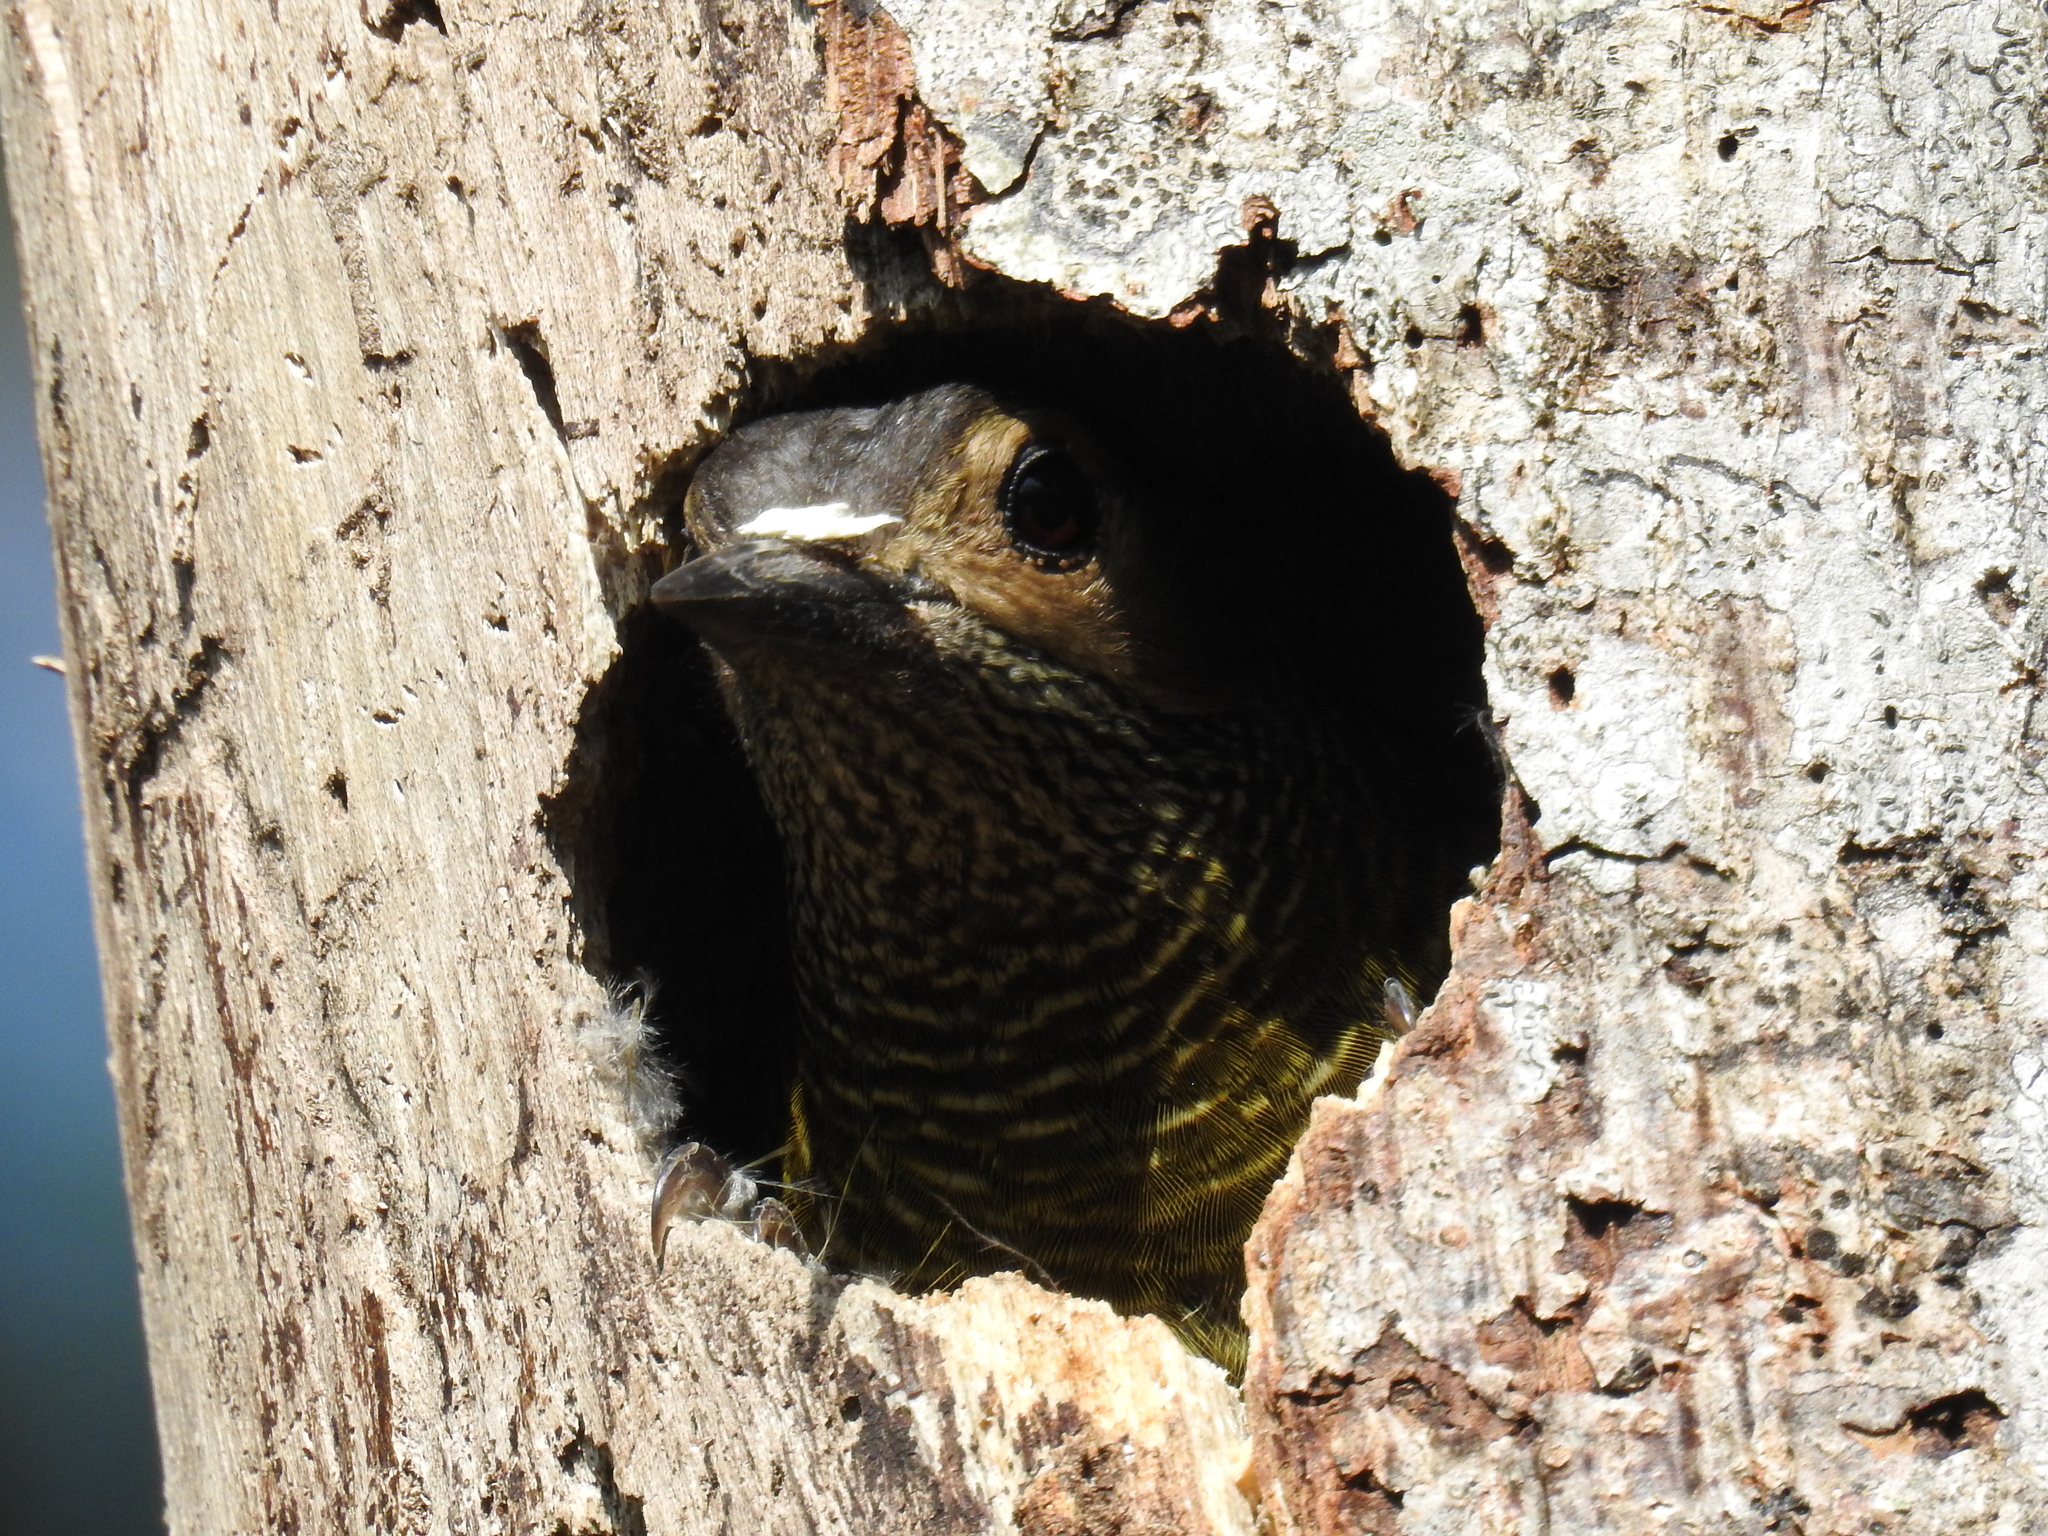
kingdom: Animalia
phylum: Chordata
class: Aves
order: Piciformes
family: Picidae
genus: Colaptes
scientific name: Colaptes rubiginosus
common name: Golden-olive woodpecker
